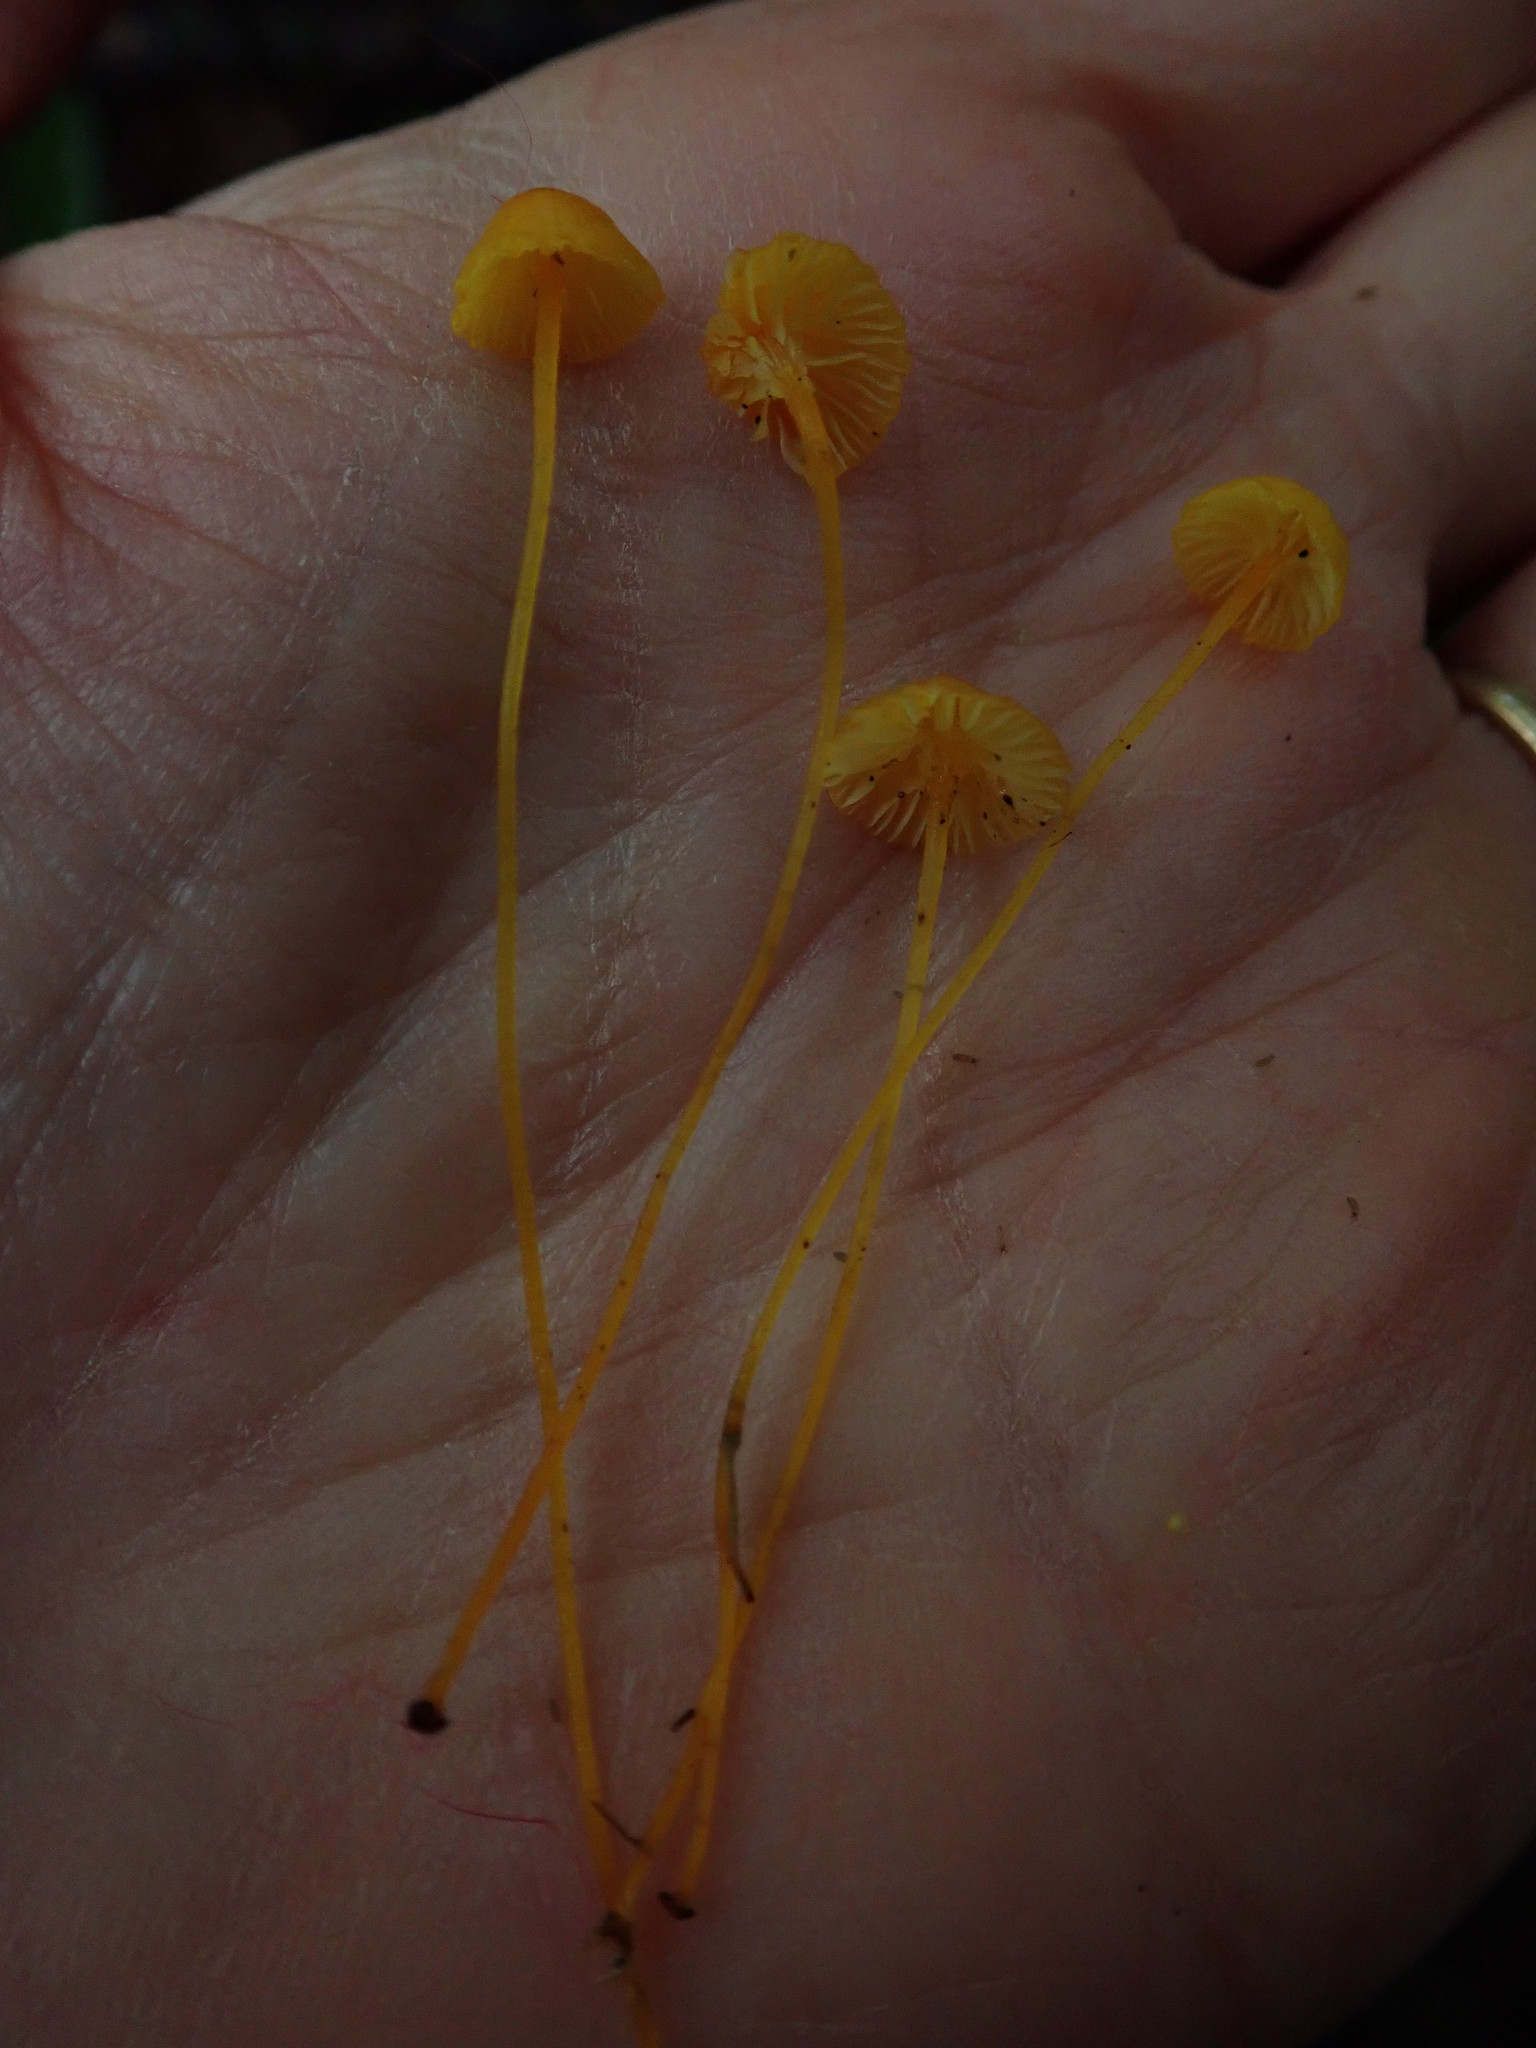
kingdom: Fungi
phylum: Basidiomycota
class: Agaricomycetes
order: Agaricales
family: Mycenaceae
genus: Mycena
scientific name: Mycena oregonensis
